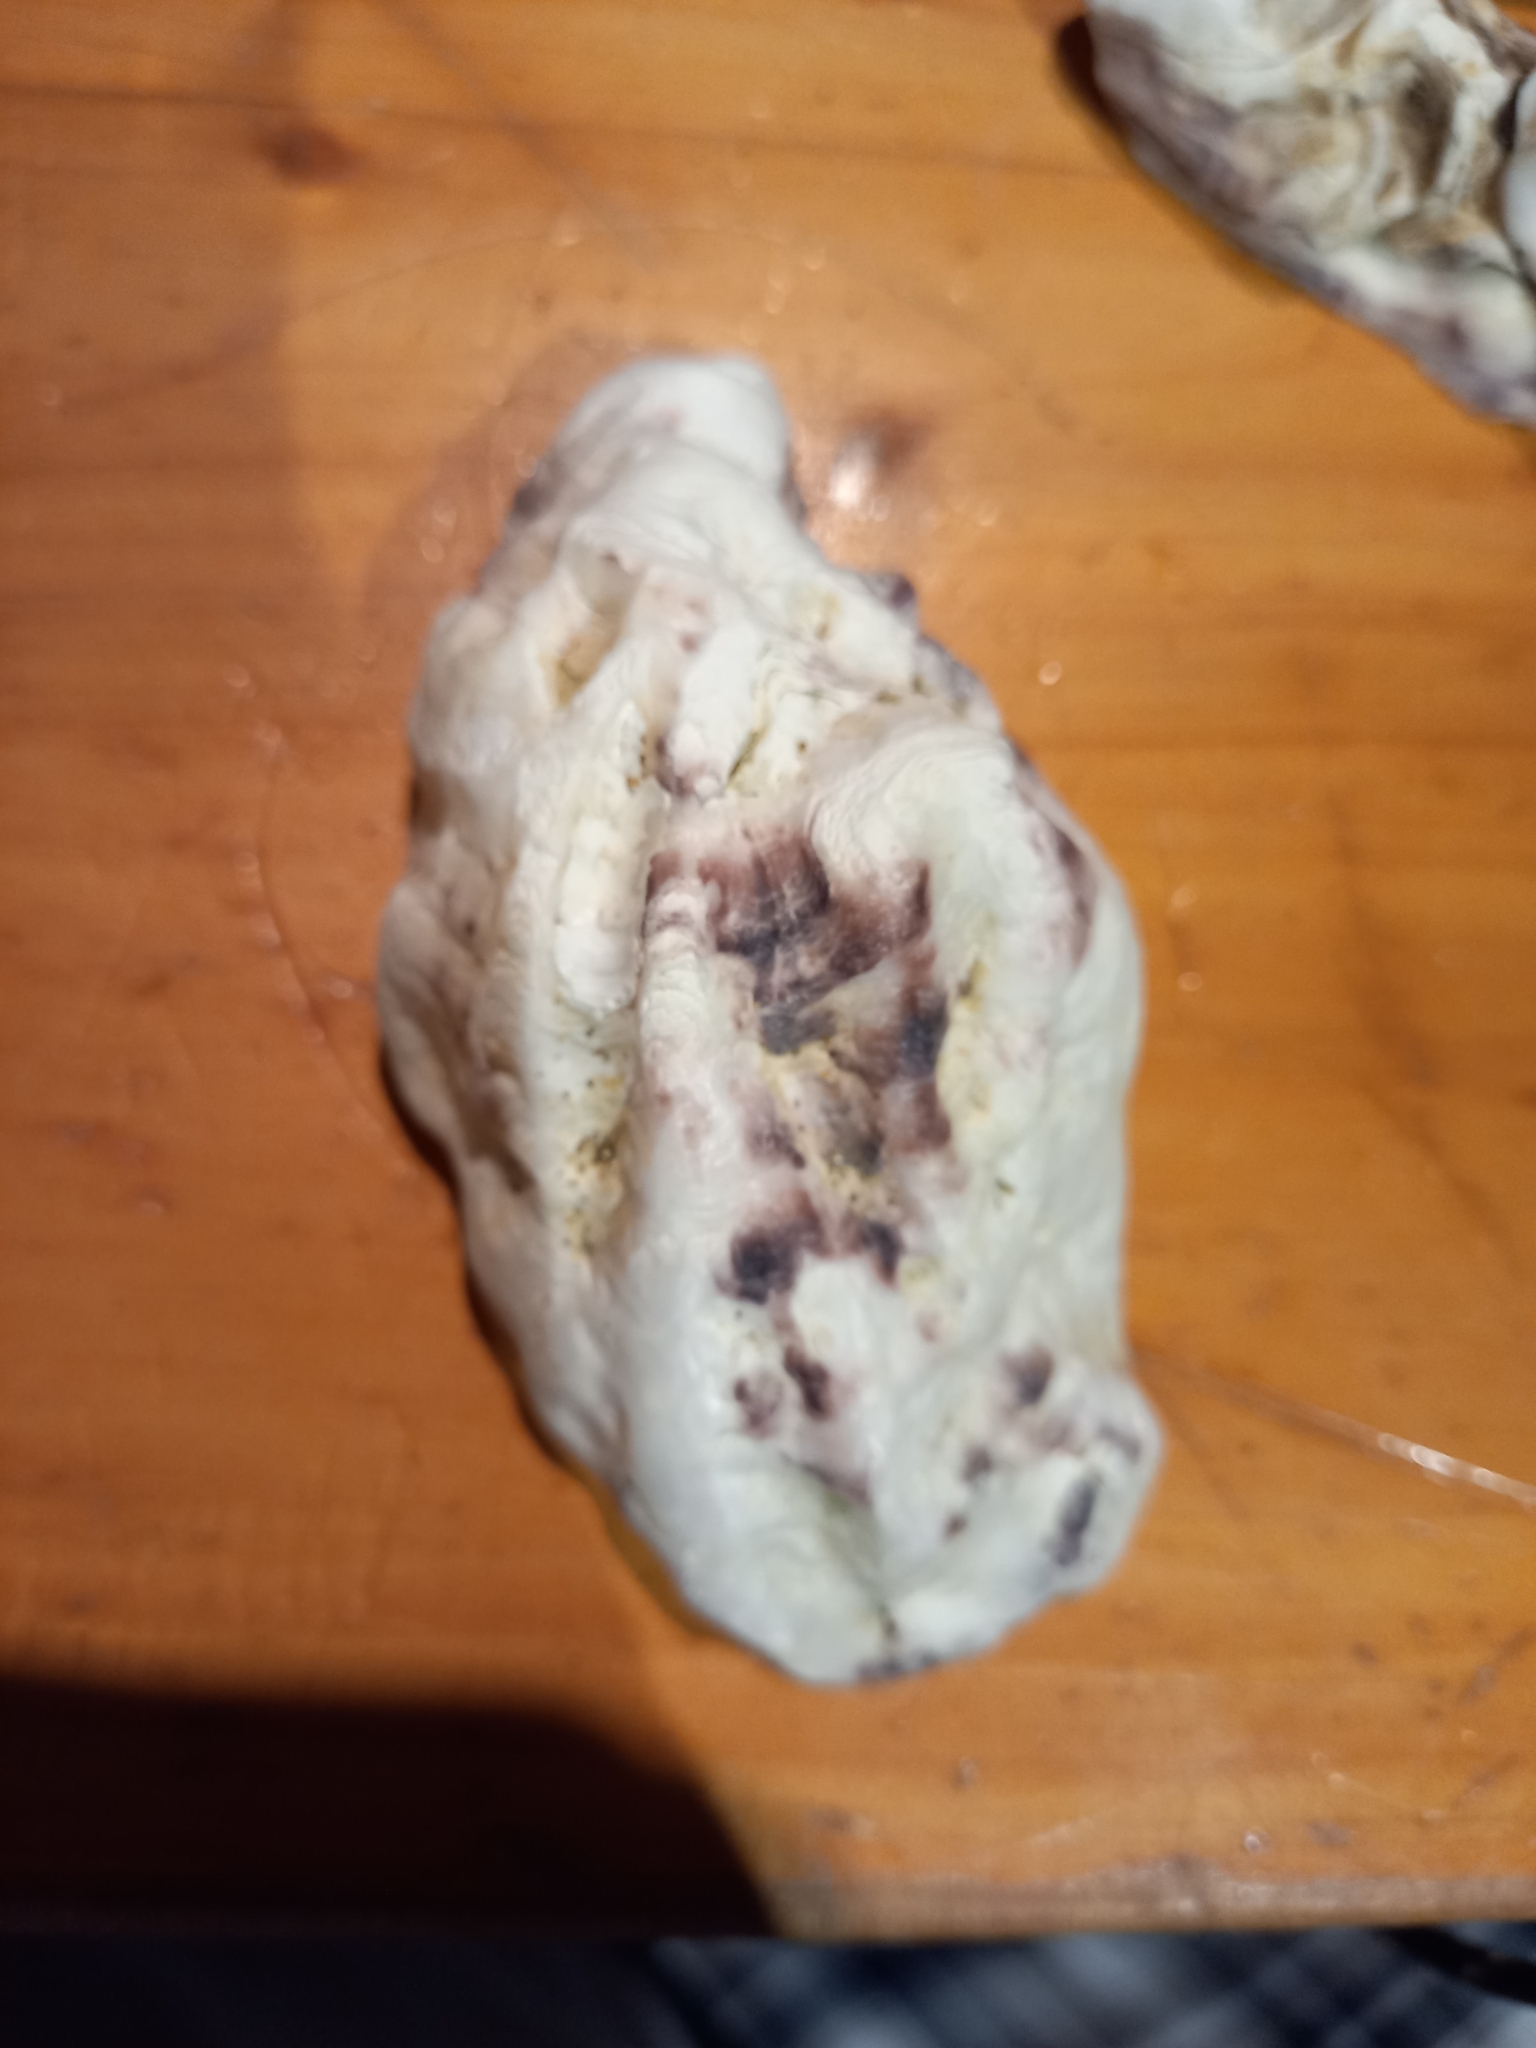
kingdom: Animalia
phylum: Mollusca
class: Bivalvia
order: Ostreida
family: Ostreidae
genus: Magallana
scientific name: Magallana gigas
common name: Pacific oyster
